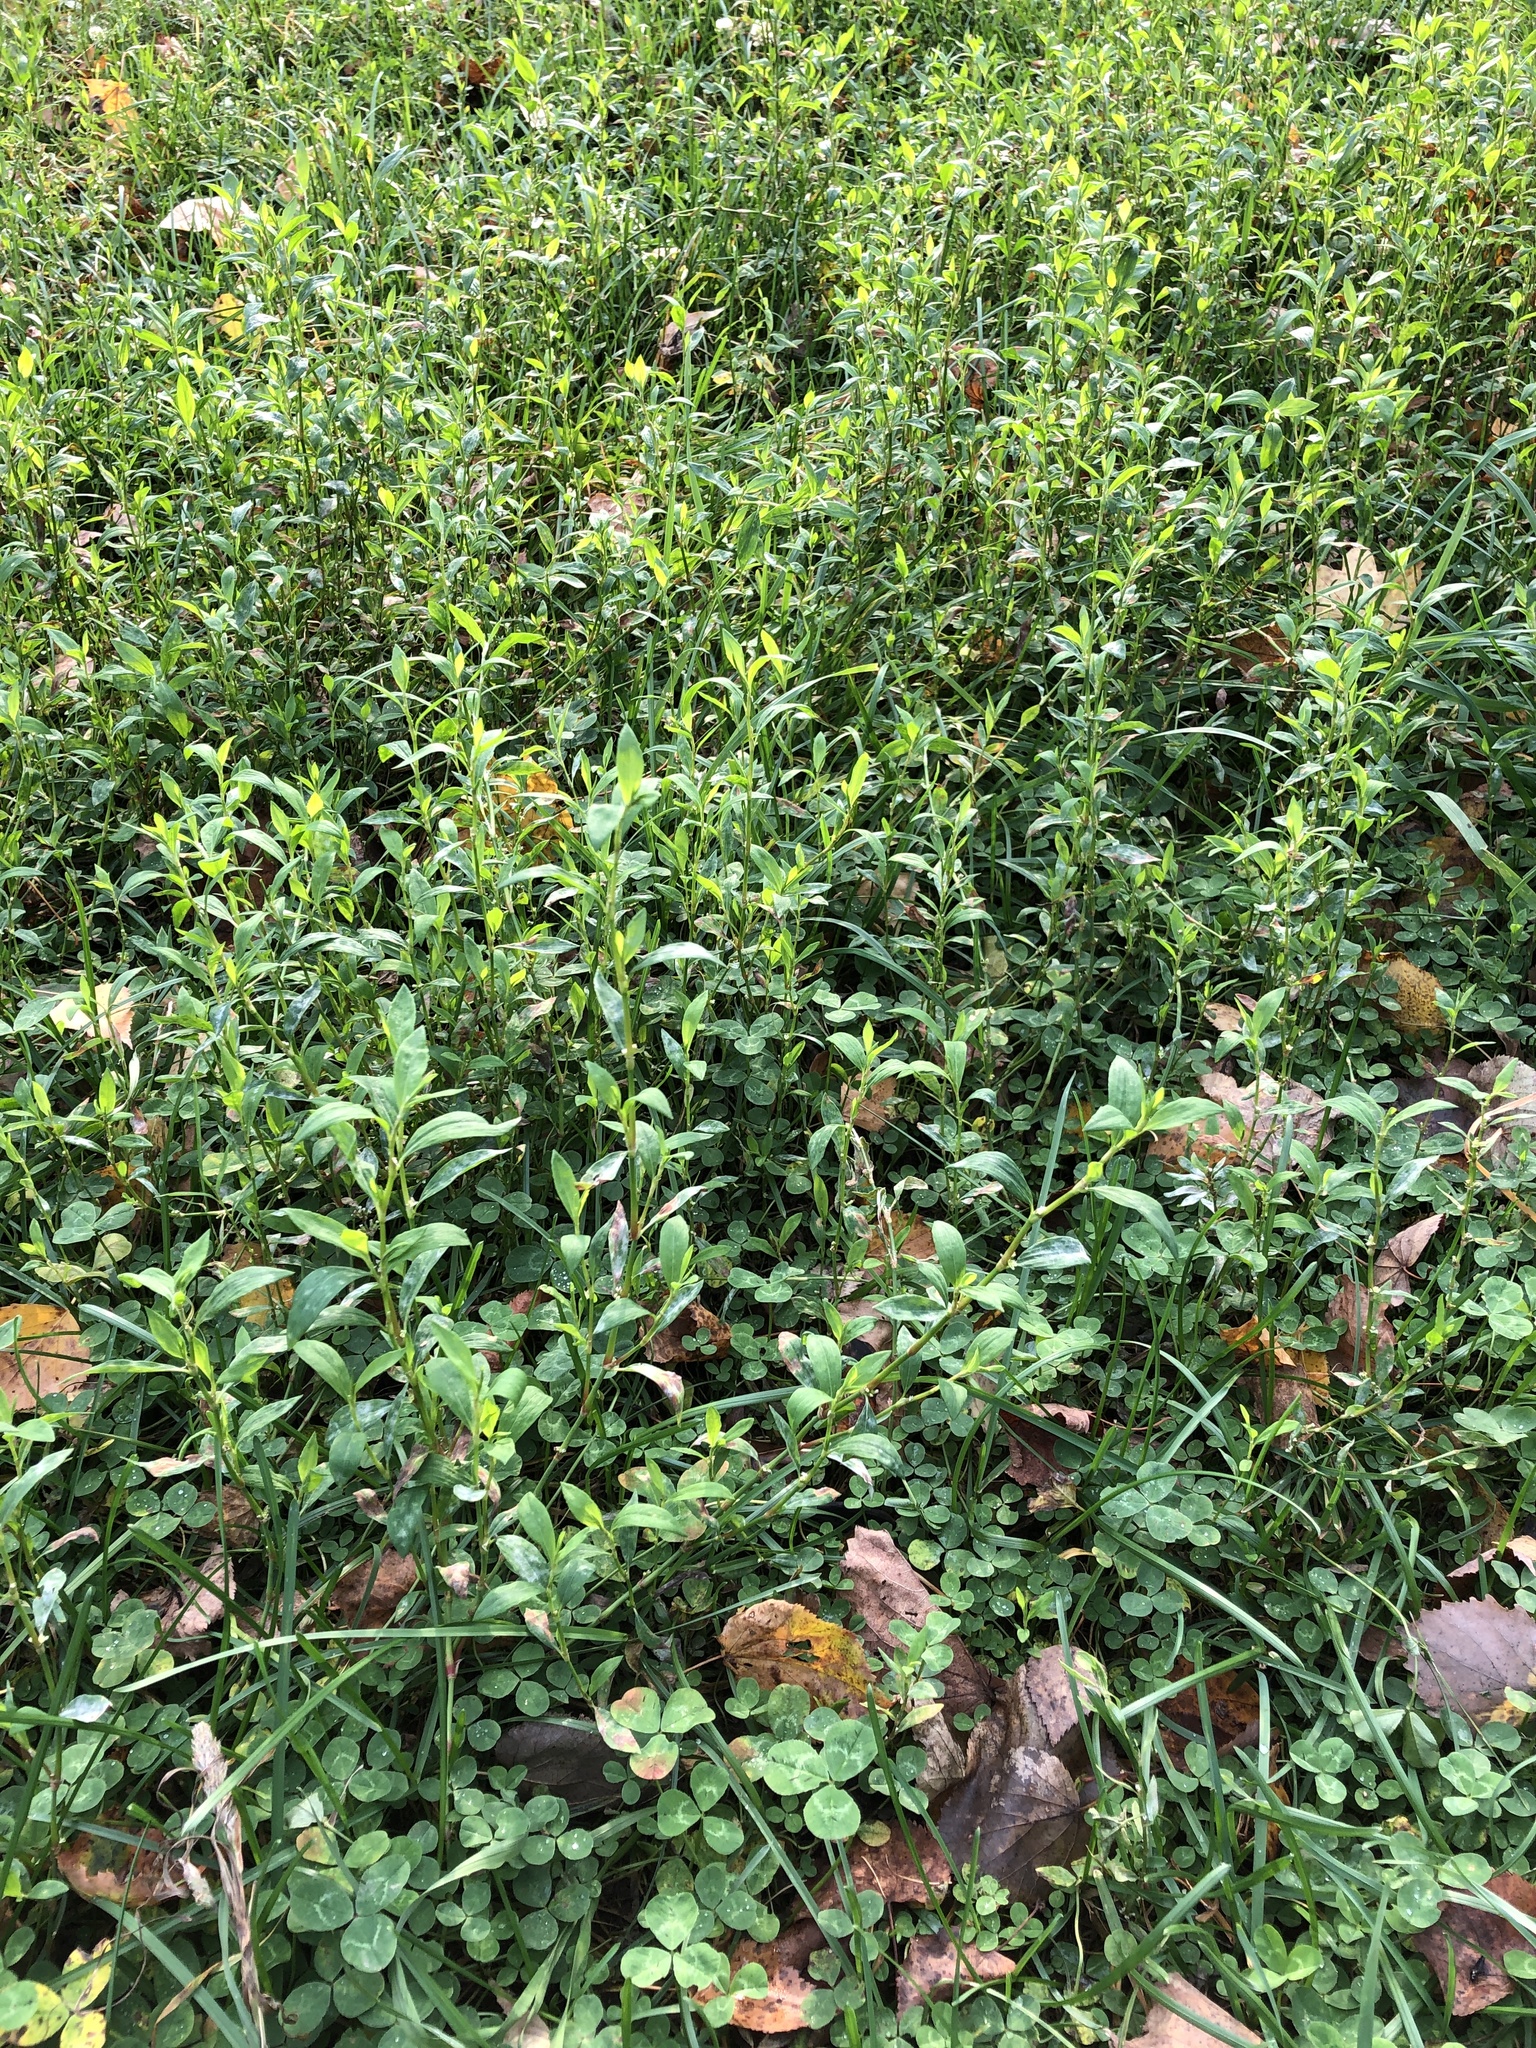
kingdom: Plantae
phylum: Tracheophyta
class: Magnoliopsida
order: Caryophyllales
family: Polygonaceae
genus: Polygonum
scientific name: Polygonum
